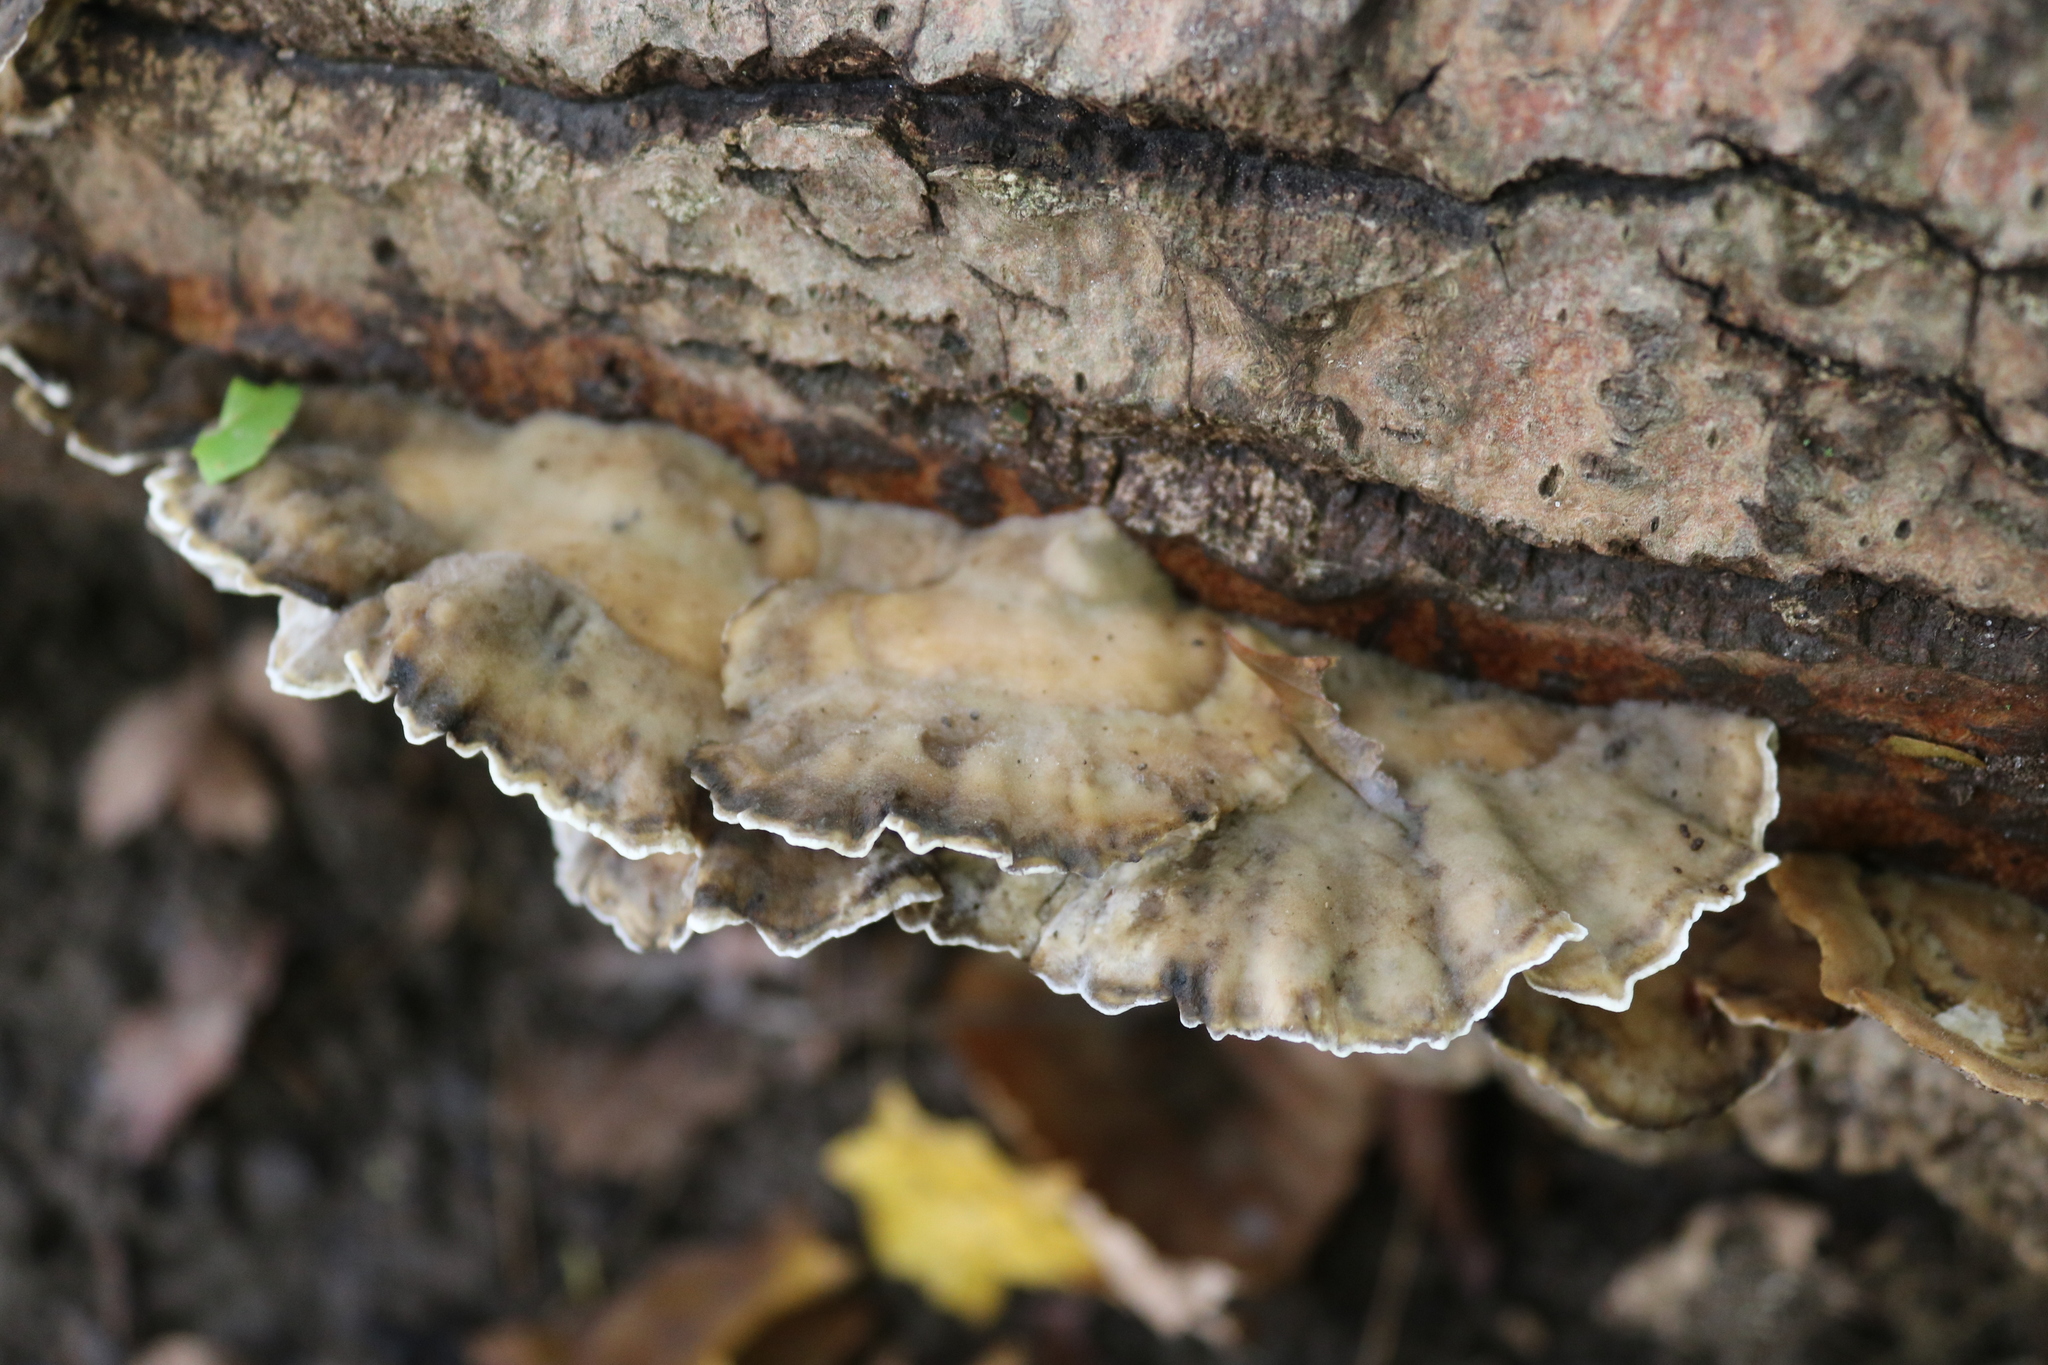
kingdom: Fungi
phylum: Basidiomycota
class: Agaricomycetes
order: Polyporales
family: Phanerochaetaceae
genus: Bjerkandera
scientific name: Bjerkandera adusta
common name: Smoky bracket
